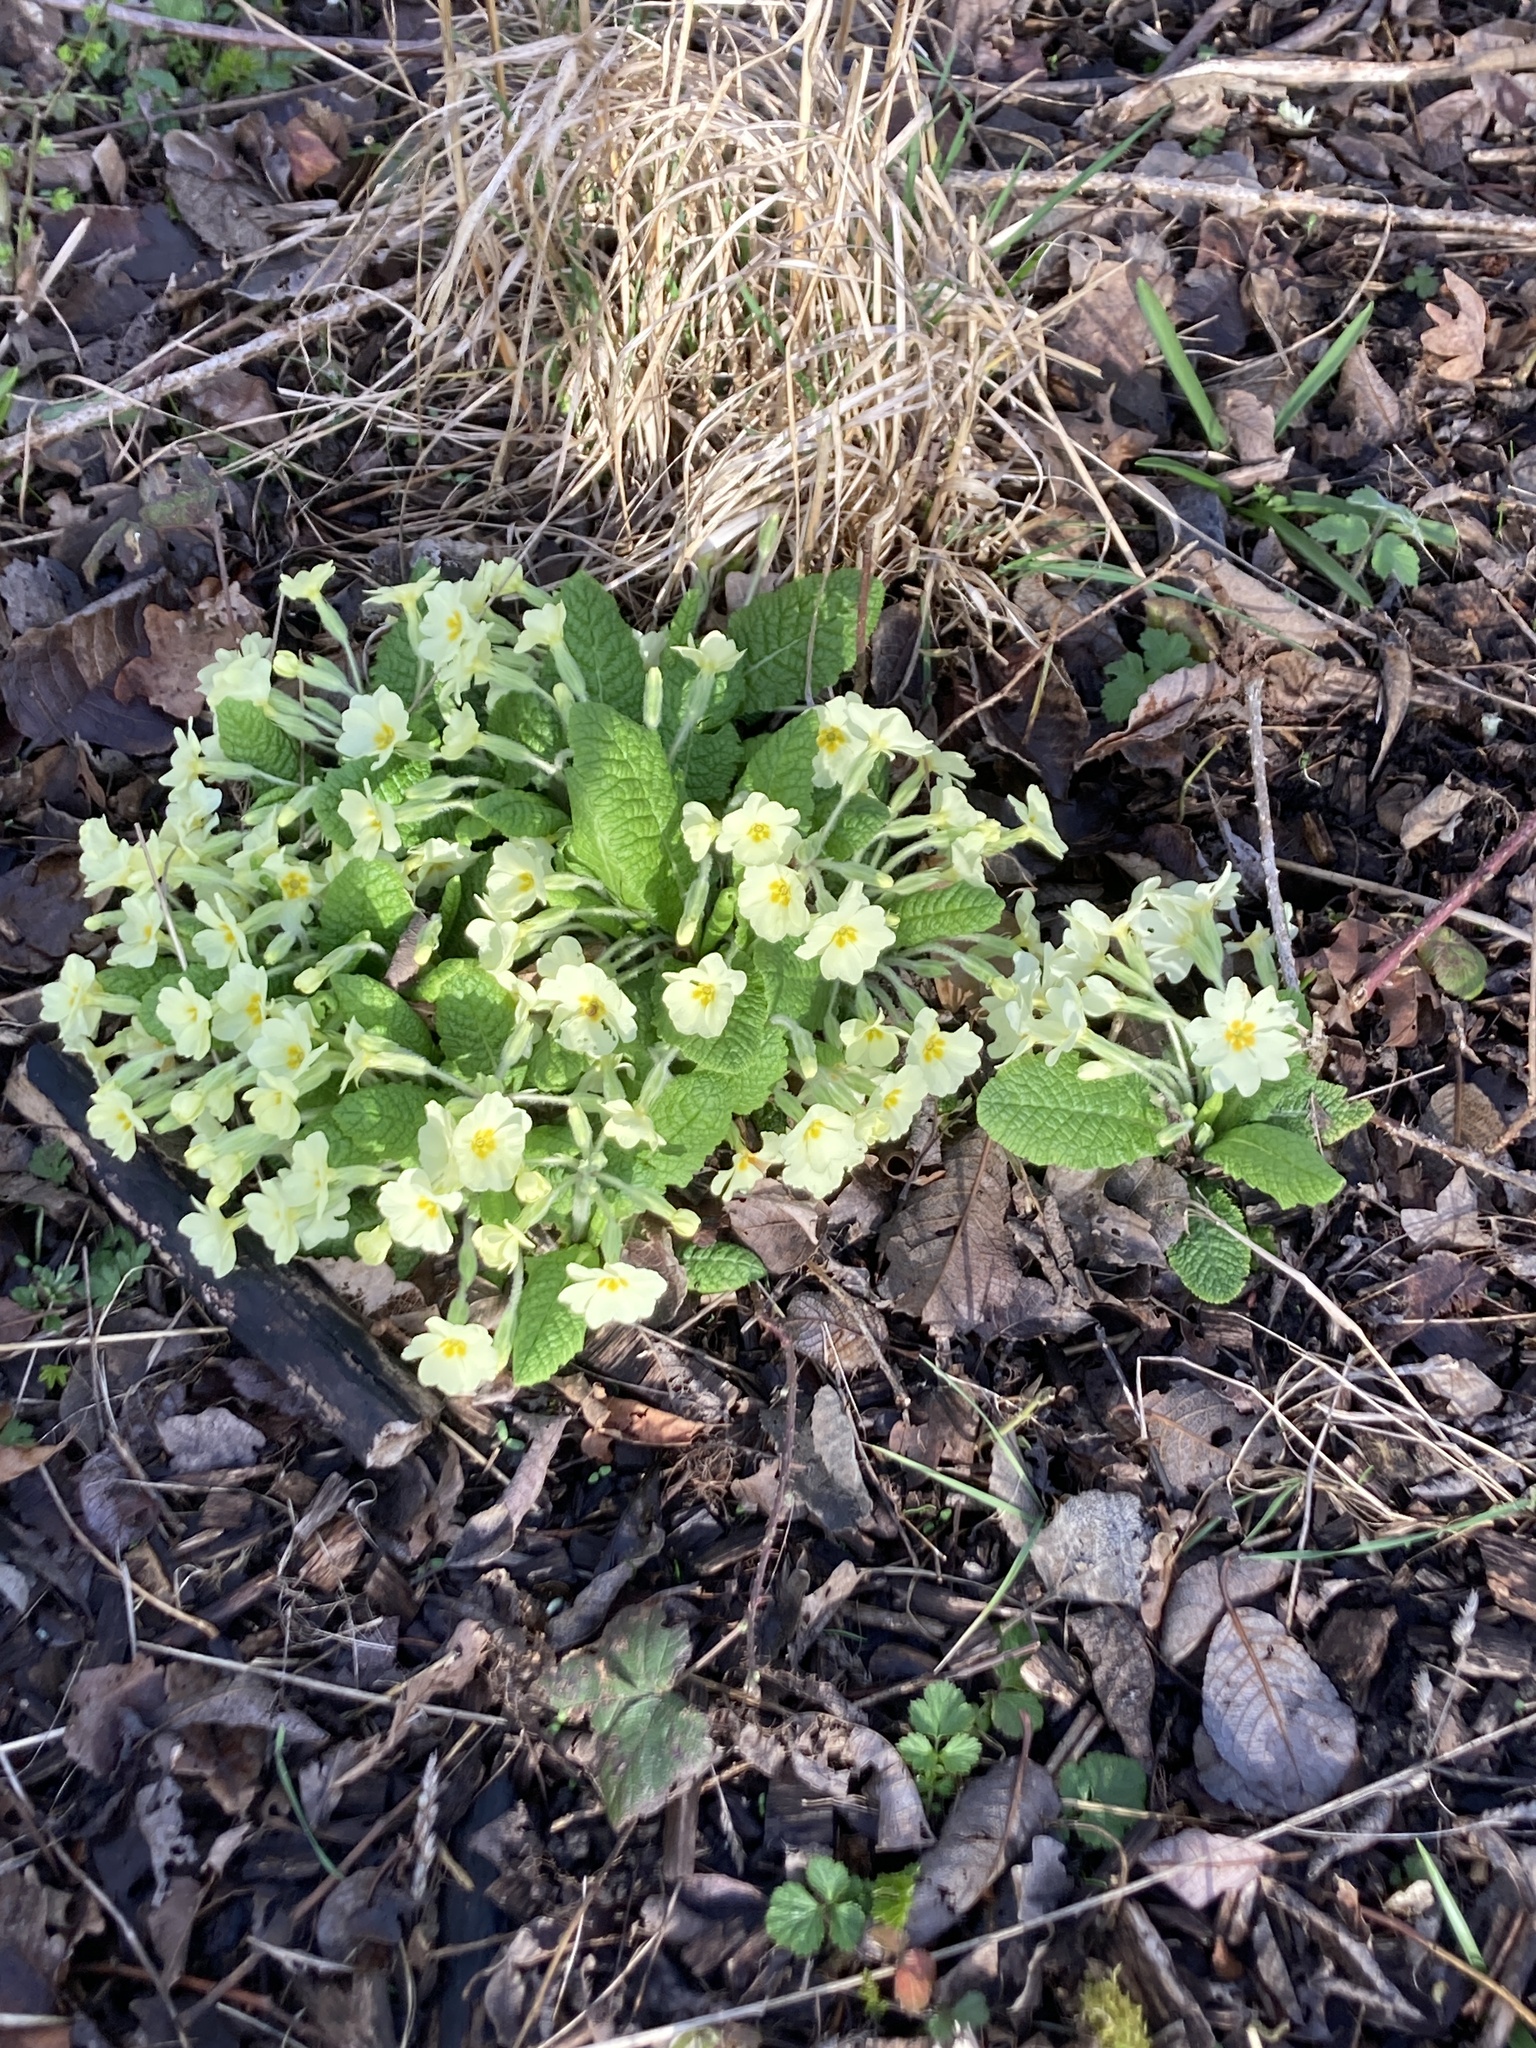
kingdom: Plantae
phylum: Tracheophyta
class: Magnoliopsida
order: Ericales
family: Primulaceae
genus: Primula
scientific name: Primula vulgaris
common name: Primrose
